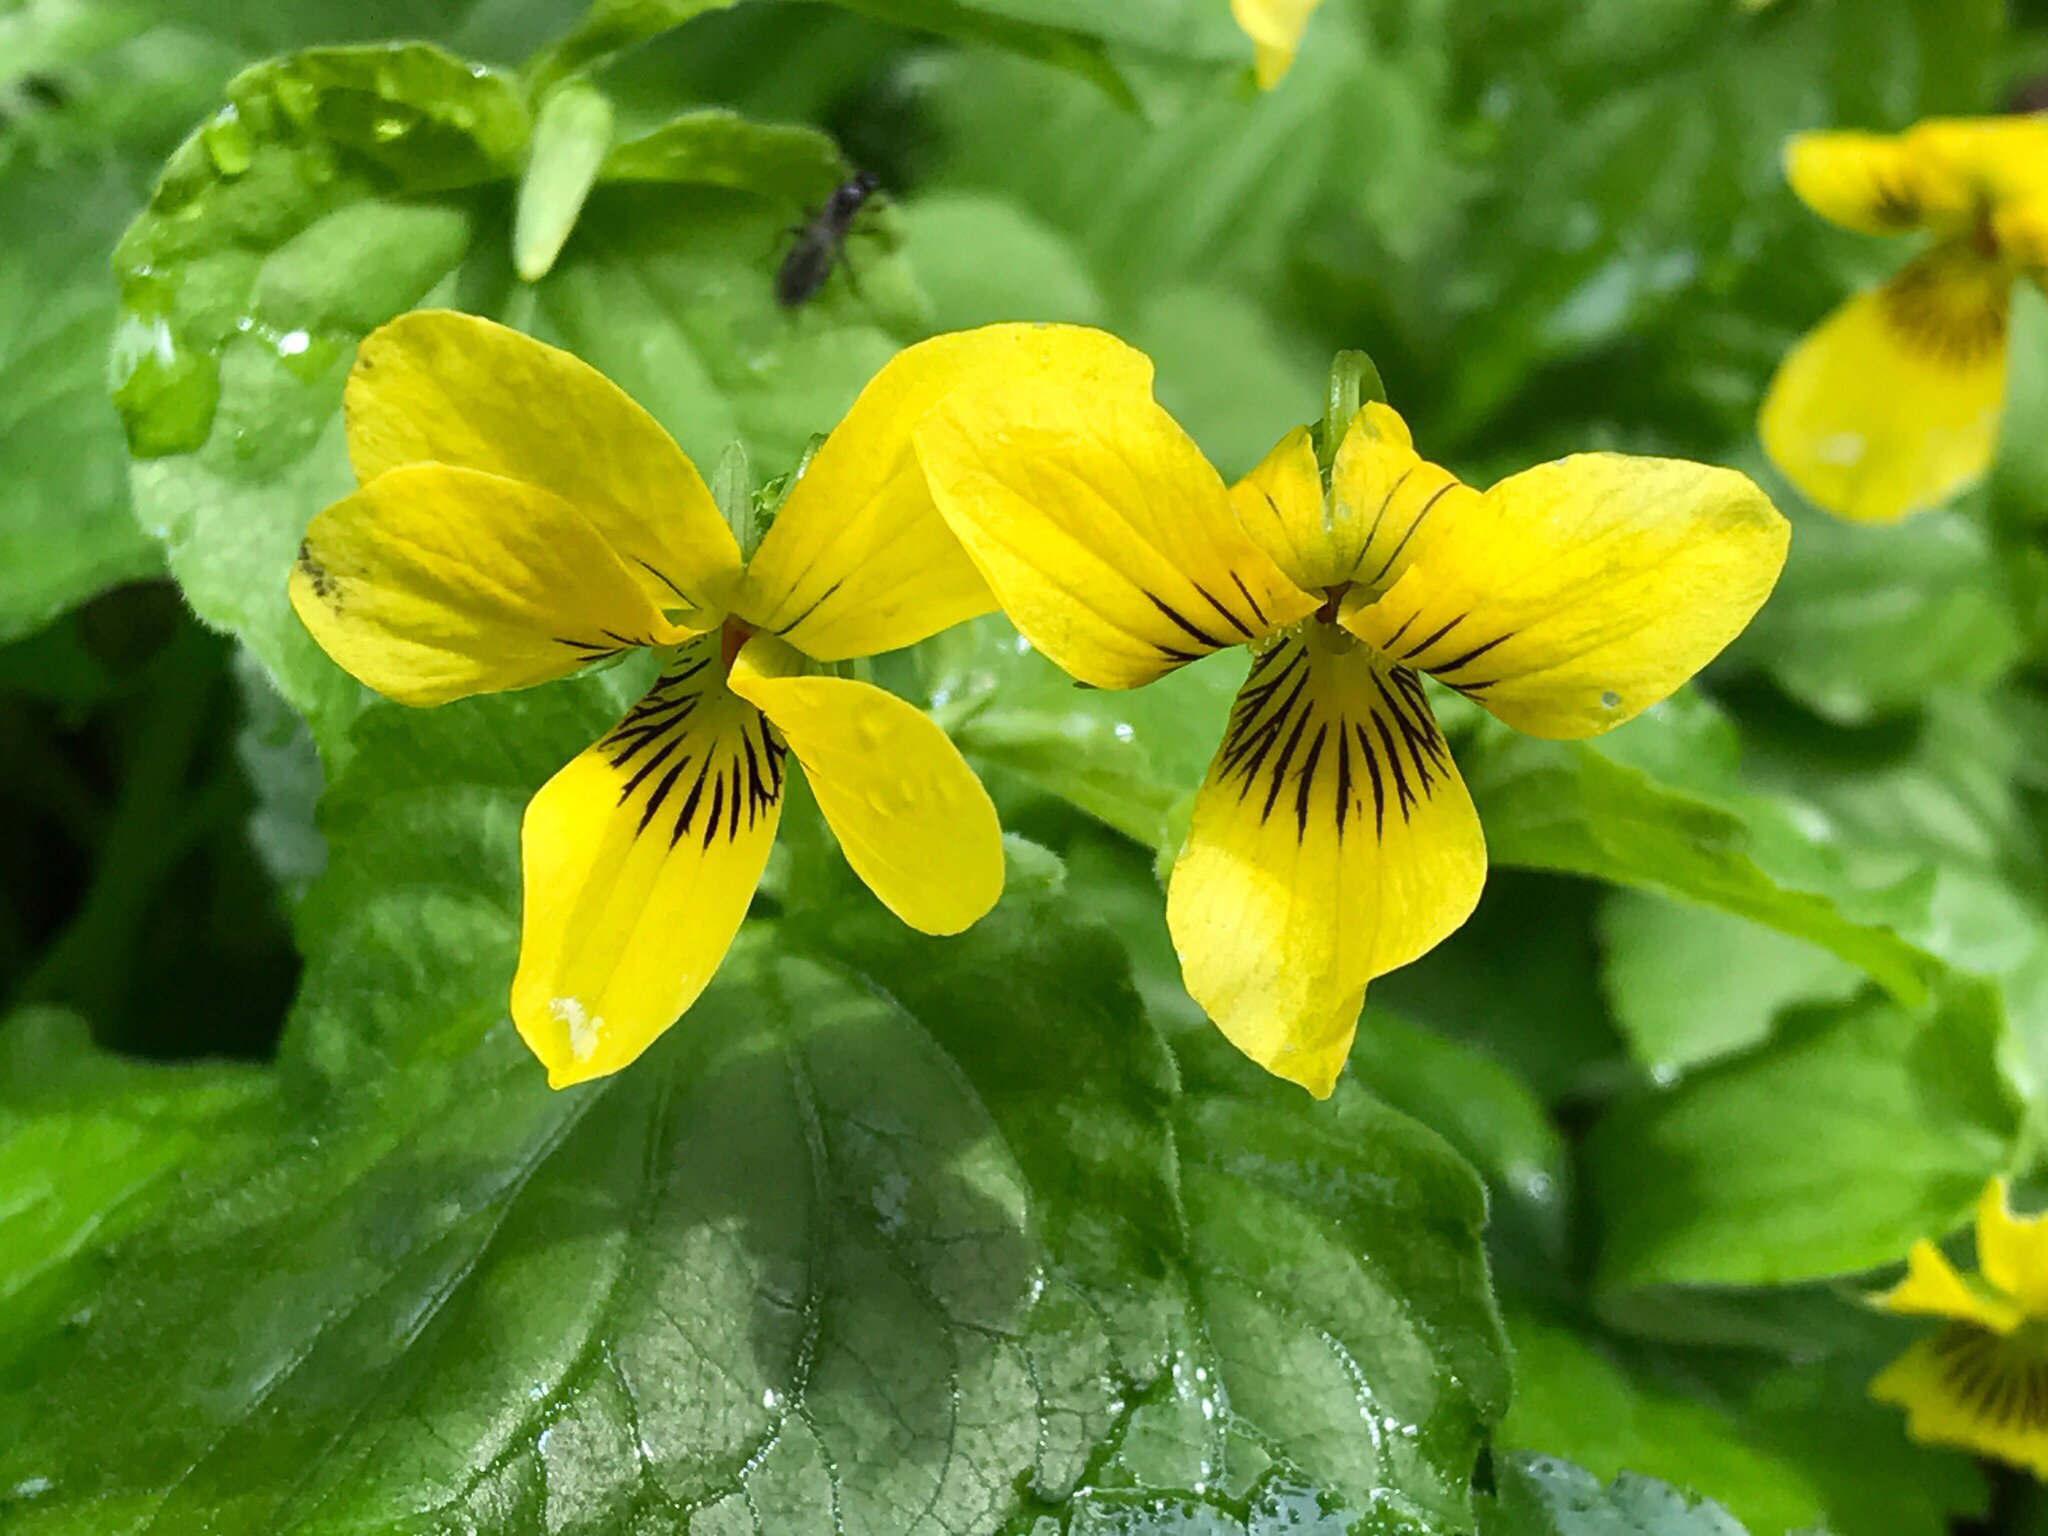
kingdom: Plantae
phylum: Tracheophyta
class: Magnoliopsida
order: Malpighiales
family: Violaceae
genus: Viola
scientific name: Viola glabella
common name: Stream violet
